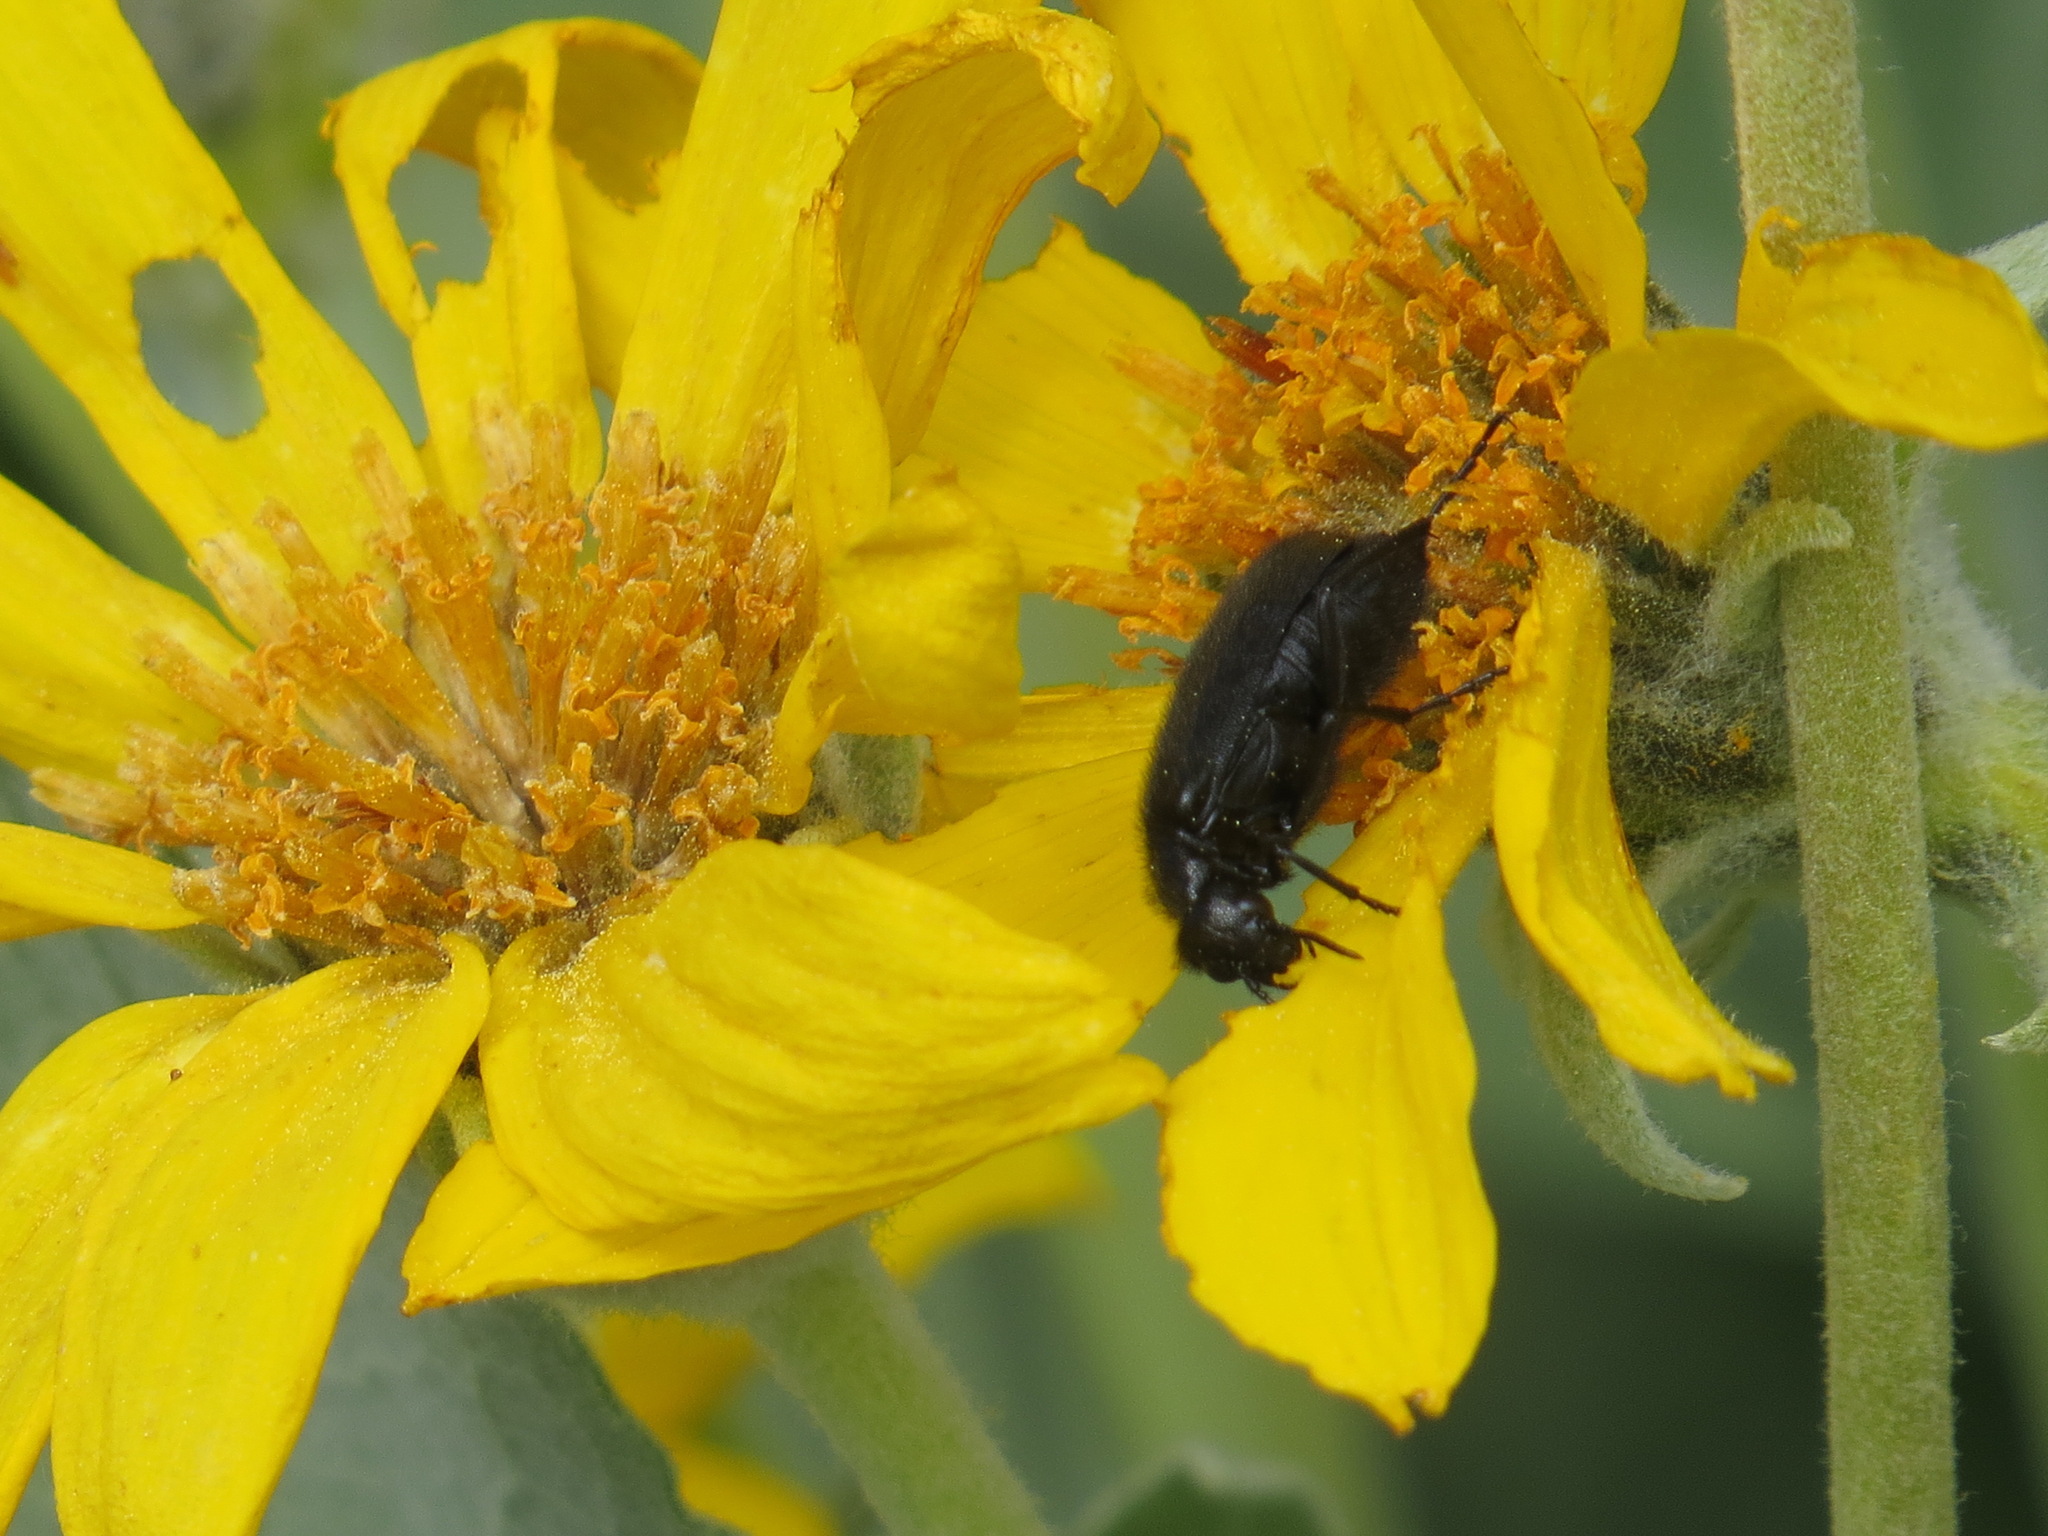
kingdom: Animalia
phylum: Arthropoda
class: Insecta
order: Coleoptera
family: Meloidae
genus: Epicauta
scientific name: Epicauta puncticollis
